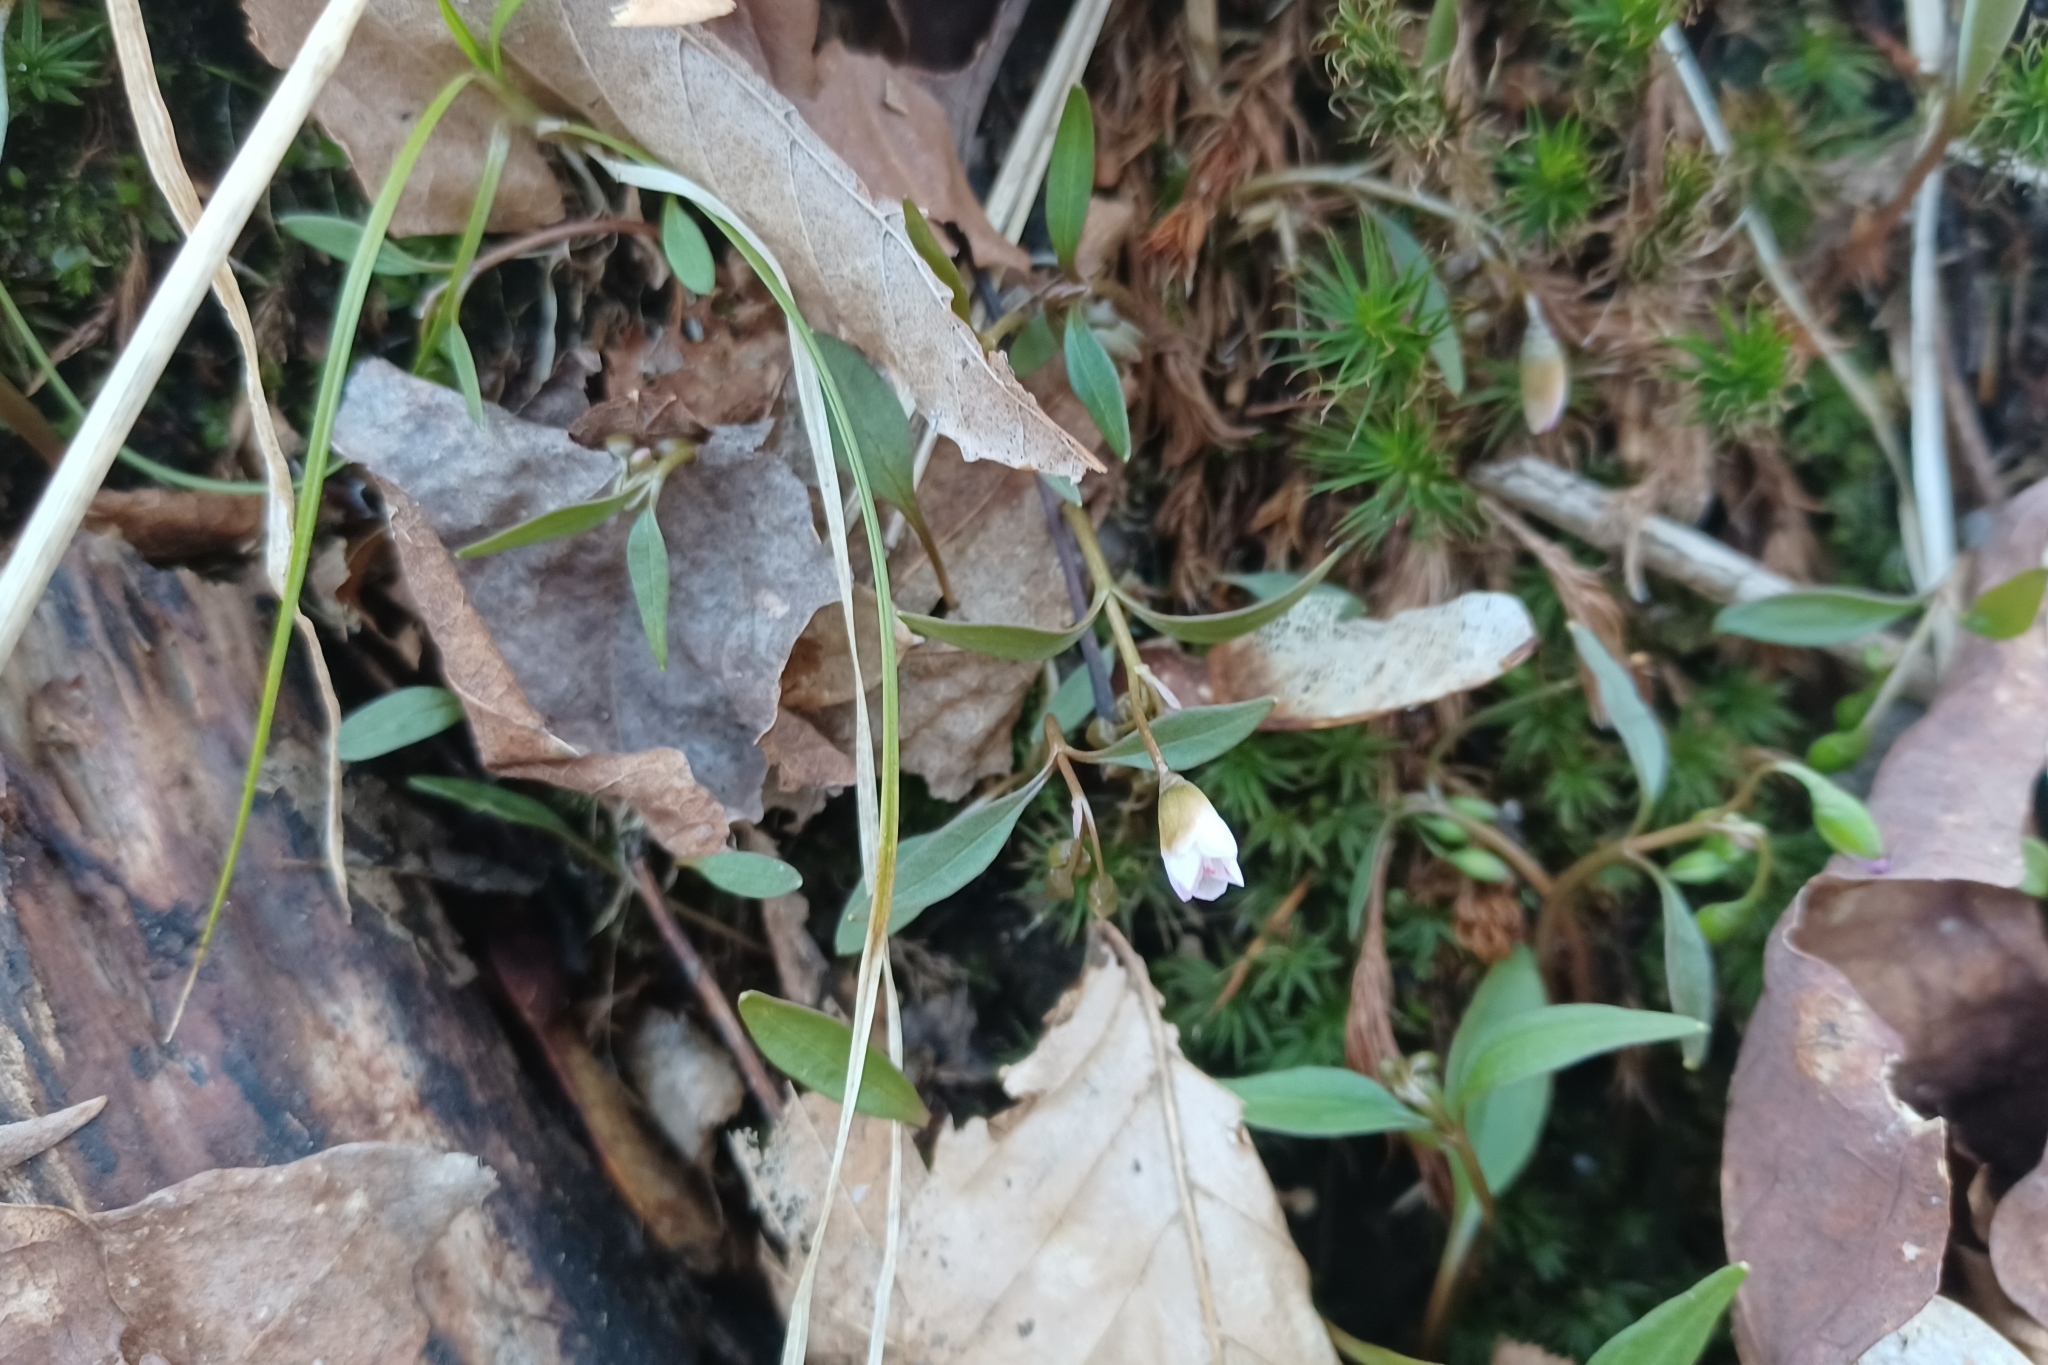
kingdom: Plantae
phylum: Tracheophyta
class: Magnoliopsida
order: Caryophyllales
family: Montiaceae
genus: Claytonia
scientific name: Claytonia caroliniana
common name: Carolina spring beauty
